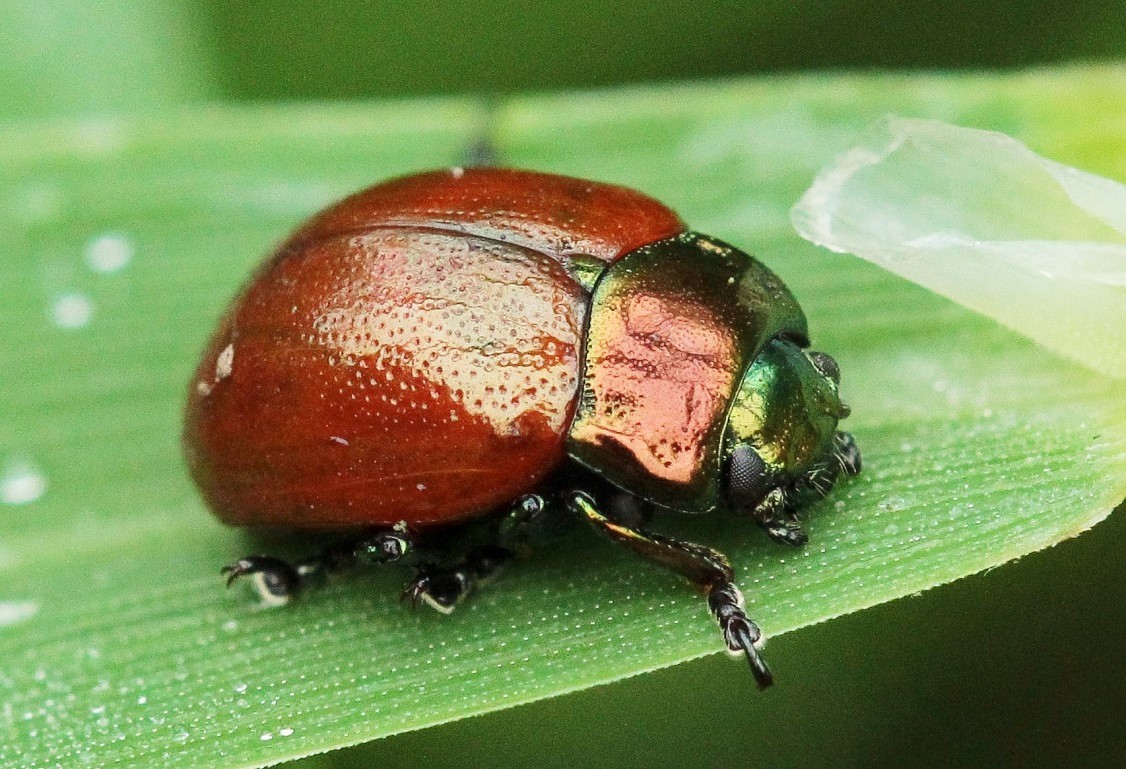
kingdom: Animalia
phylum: Arthropoda
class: Insecta
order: Coleoptera
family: Chrysomelidae
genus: Chrysomela
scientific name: Chrysomela polita
